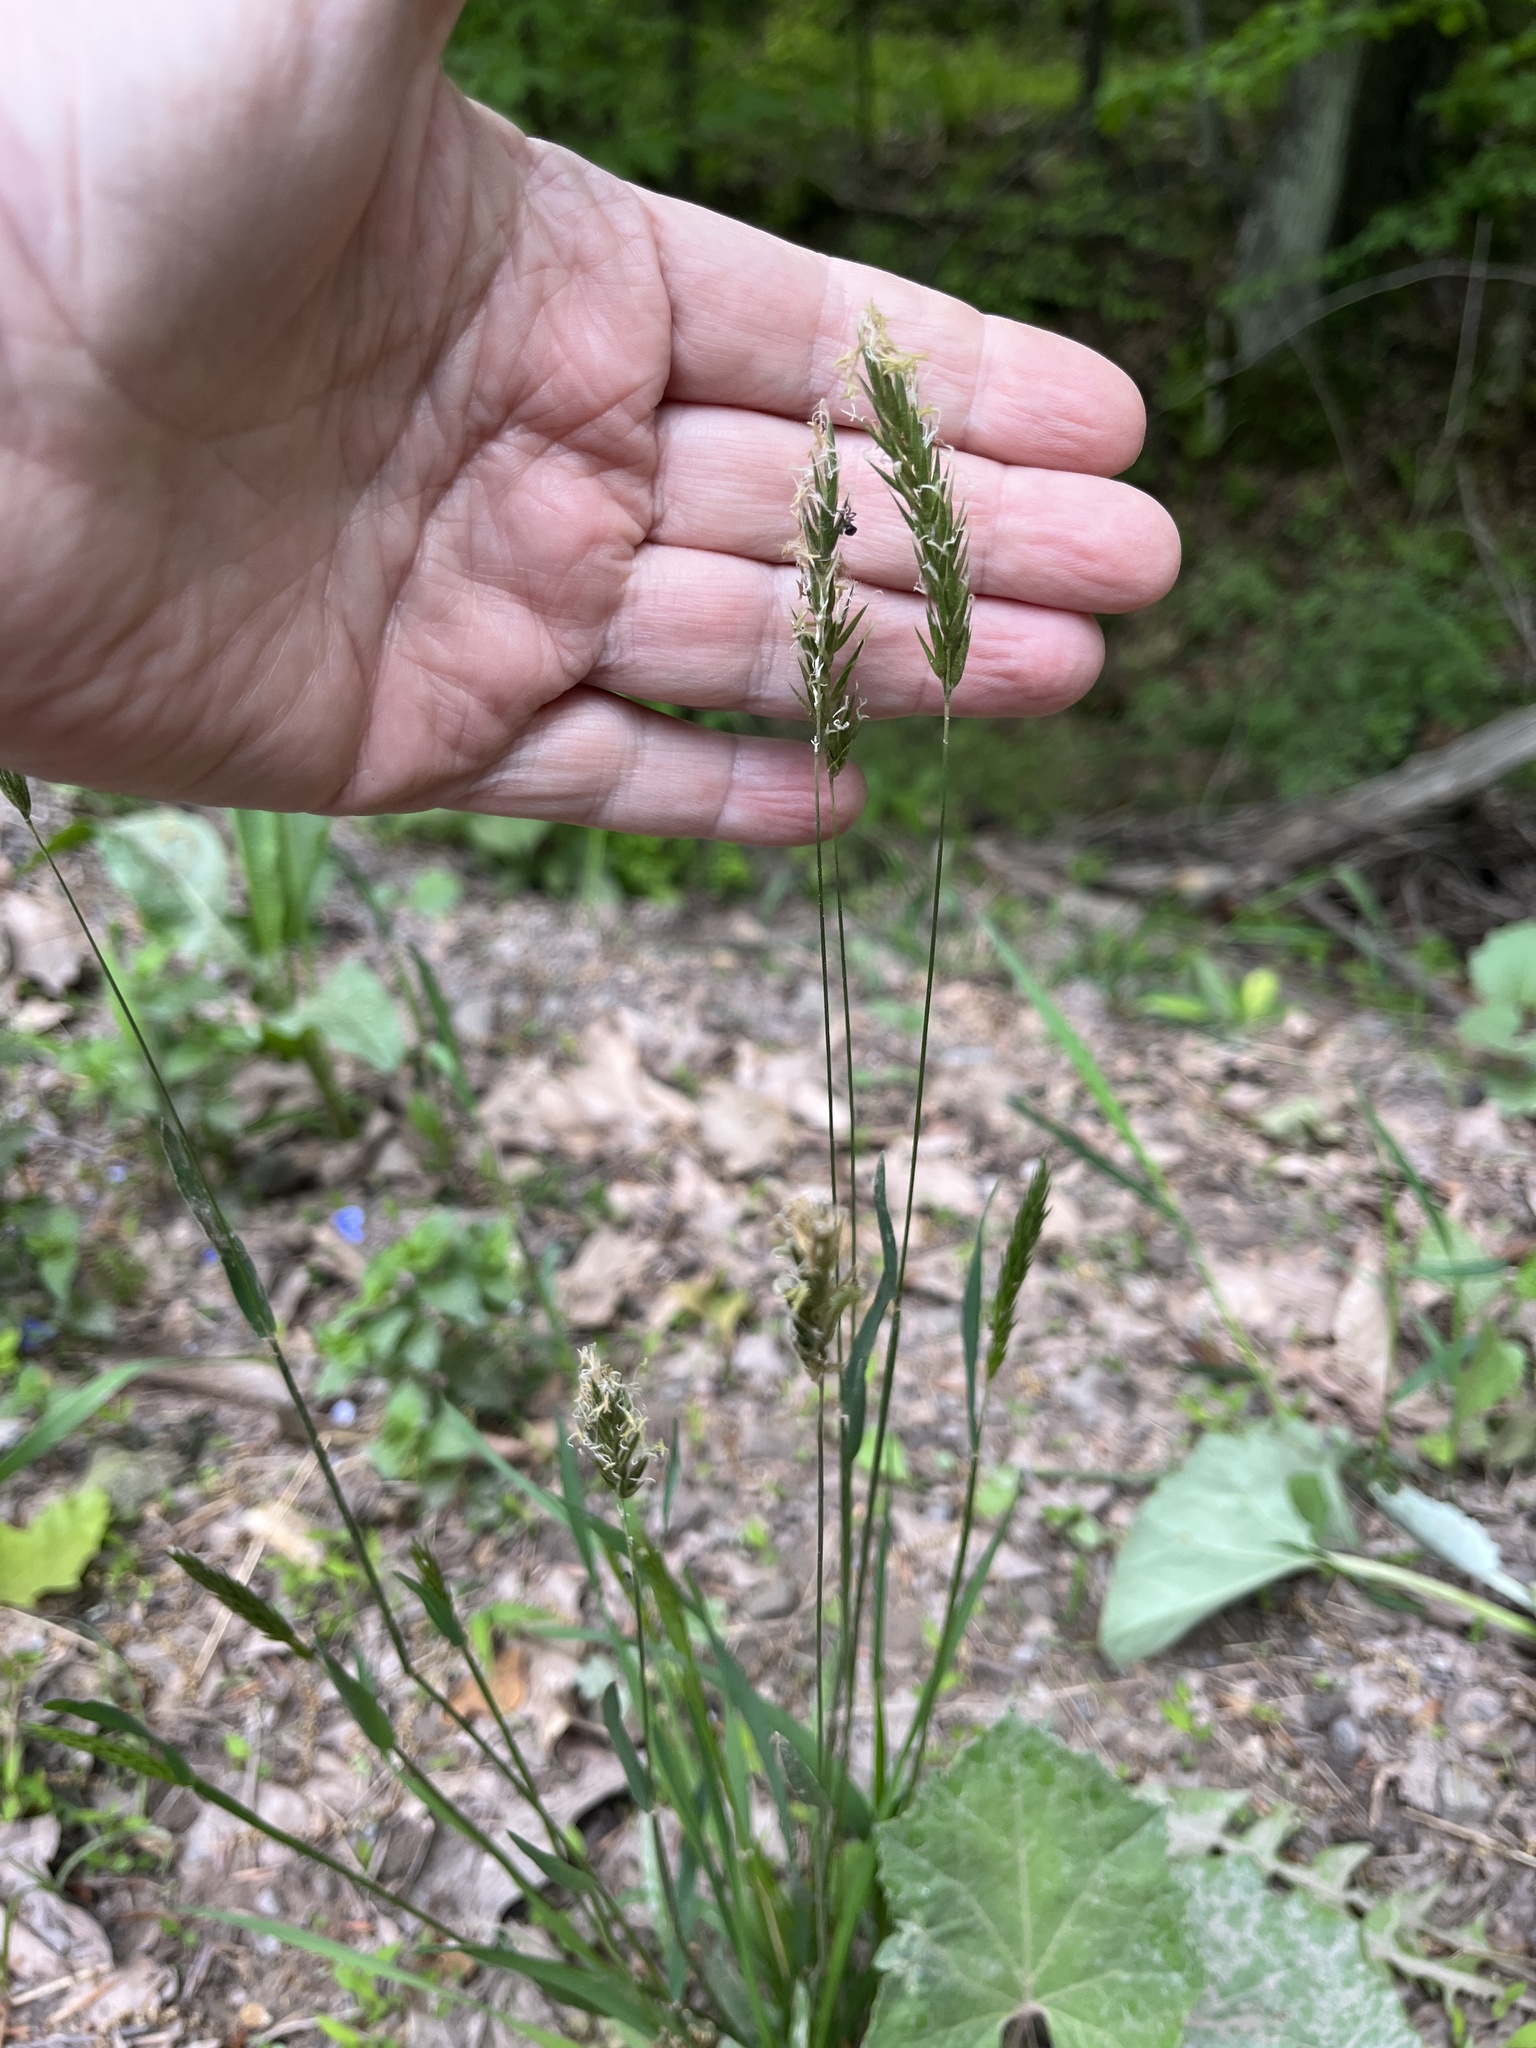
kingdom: Plantae
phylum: Tracheophyta
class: Liliopsida
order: Poales
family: Poaceae
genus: Anthoxanthum
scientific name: Anthoxanthum odoratum
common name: Sweet vernalgrass
